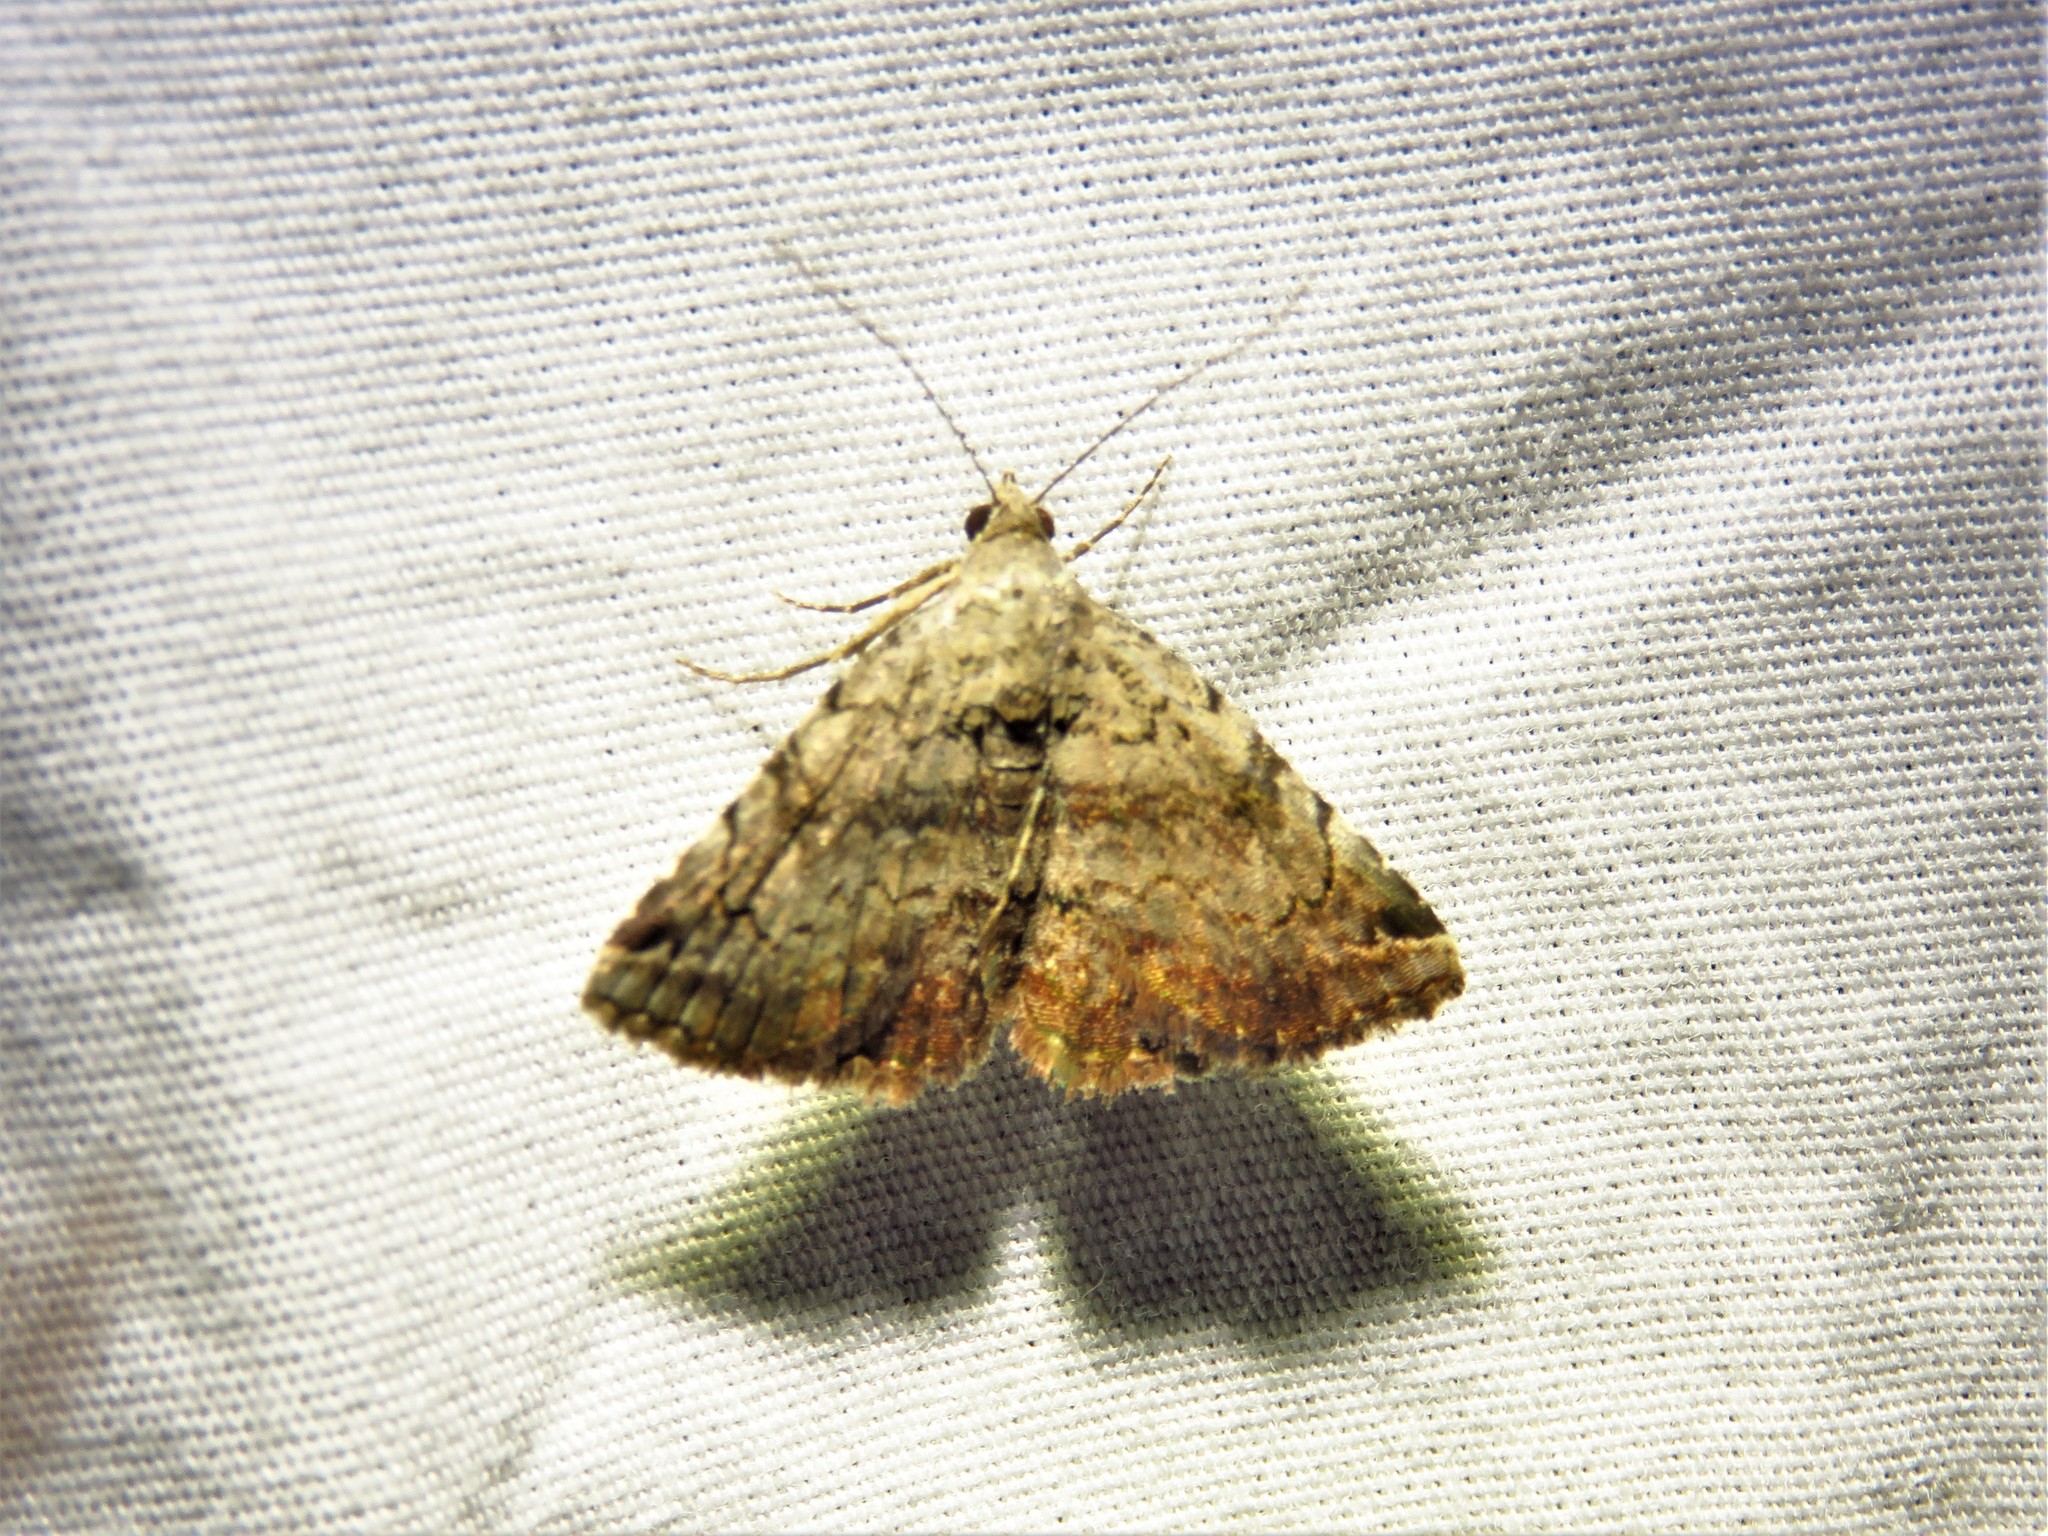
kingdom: Animalia
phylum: Arthropoda
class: Insecta
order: Lepidoptera
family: Erebidae
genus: Toxonprucha
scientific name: Toxonprucha crudelis
